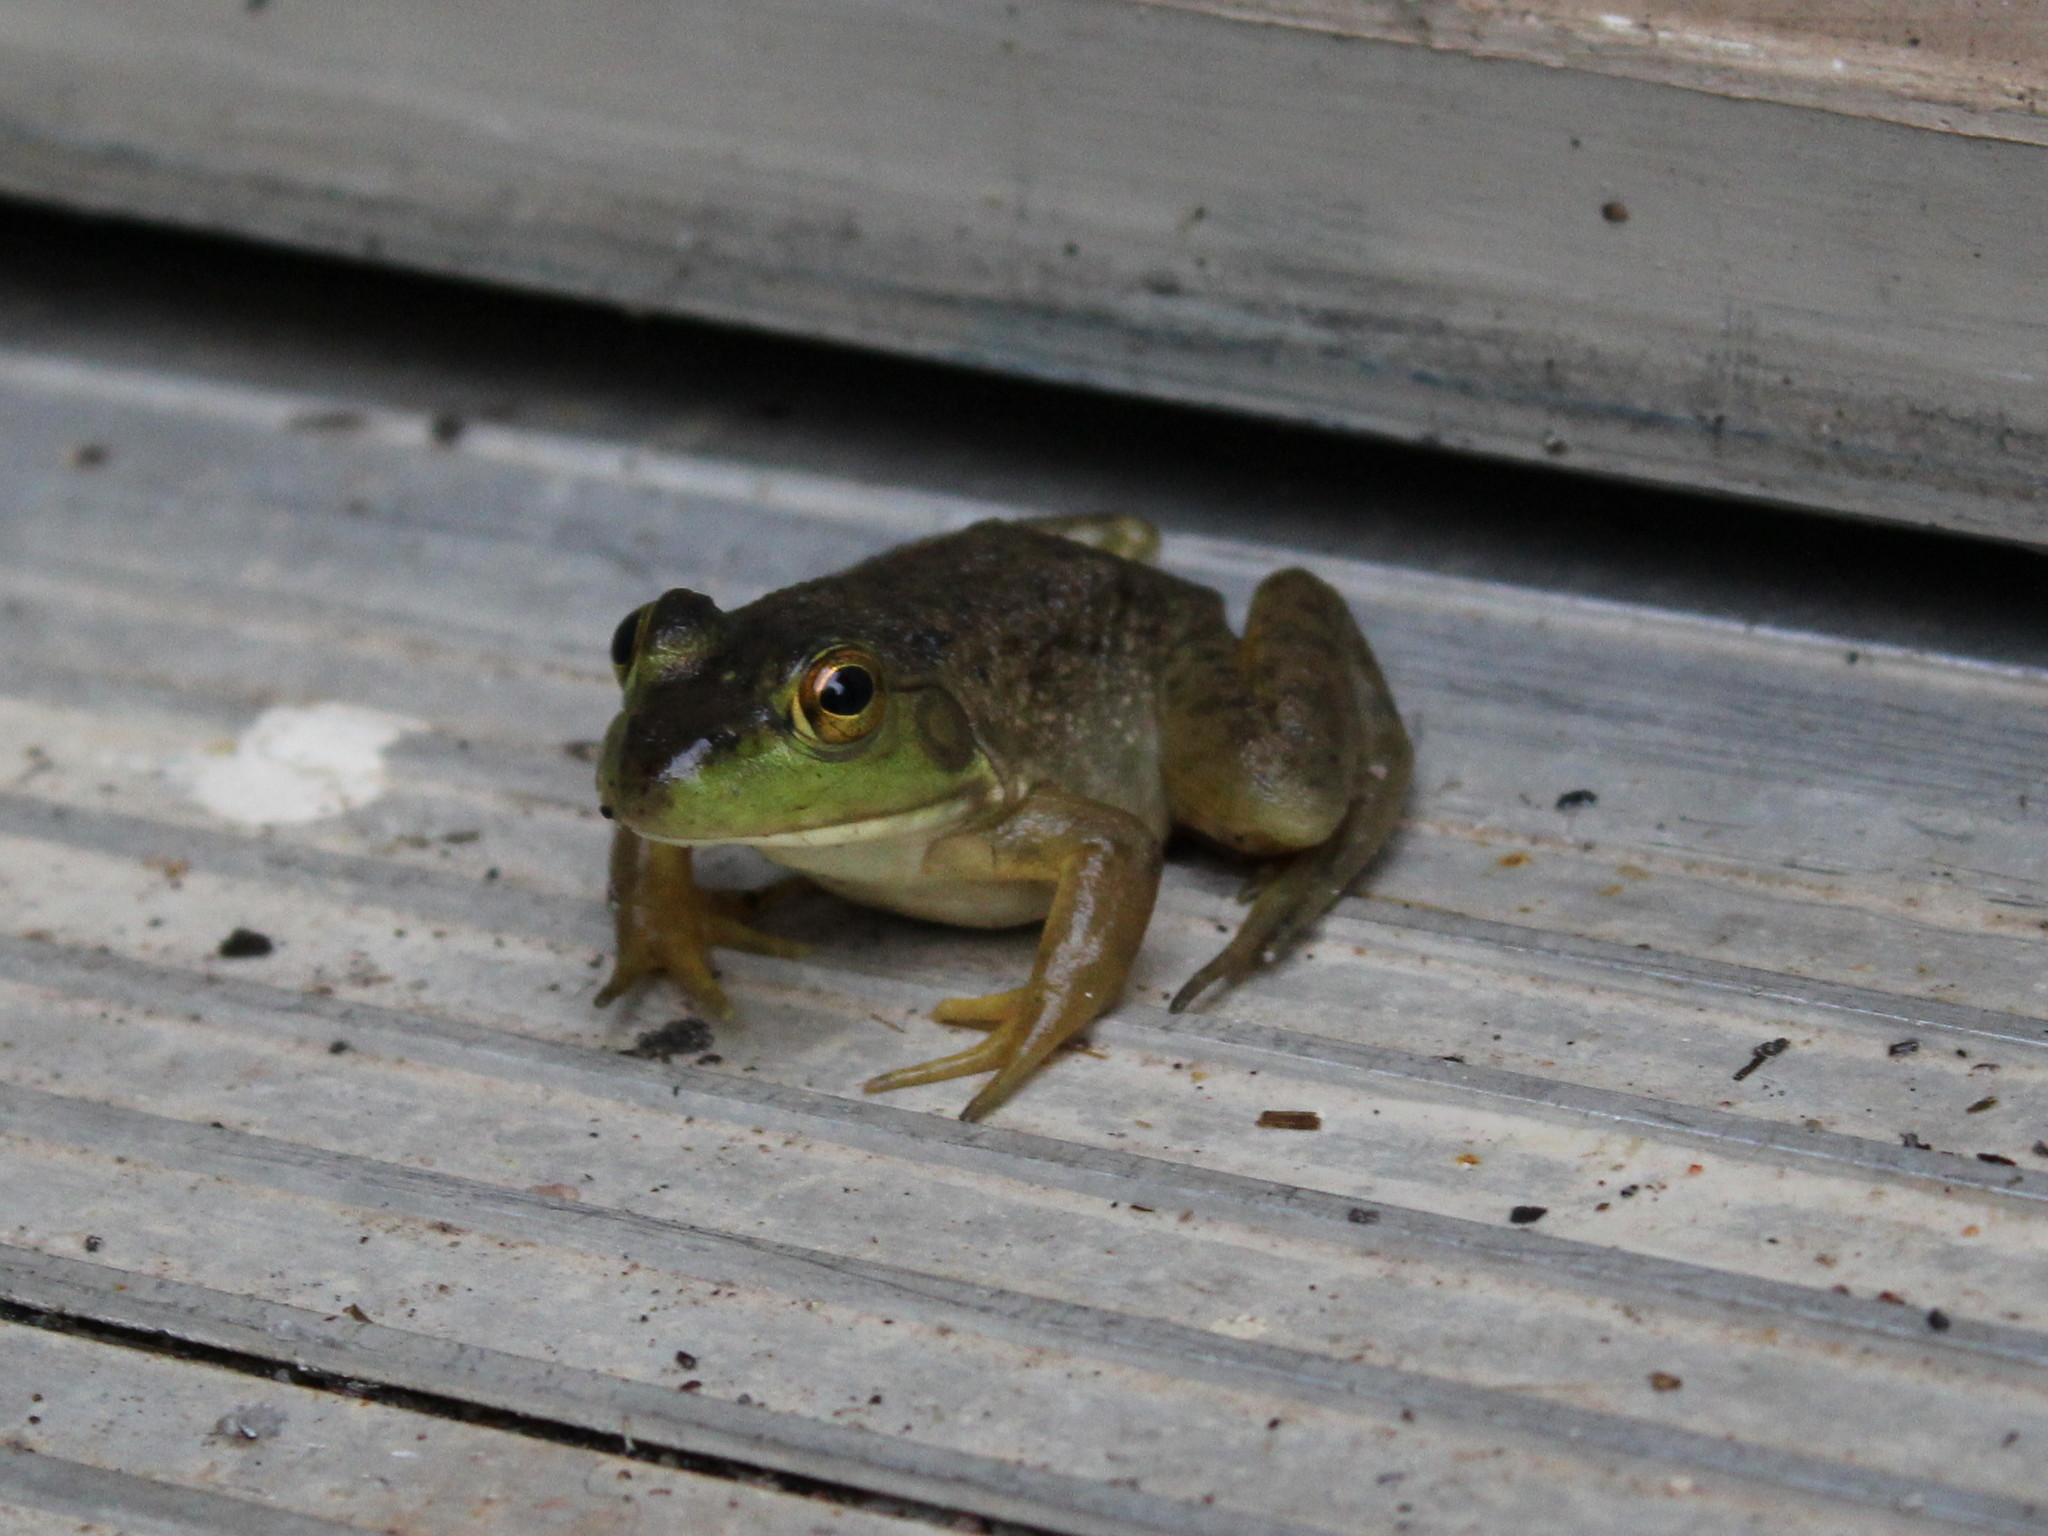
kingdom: Animalia
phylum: Chordata
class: Amphibia
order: Anura
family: Ranidae
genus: Lithobates
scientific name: Lithobates catesbeianus
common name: American bullfrog
